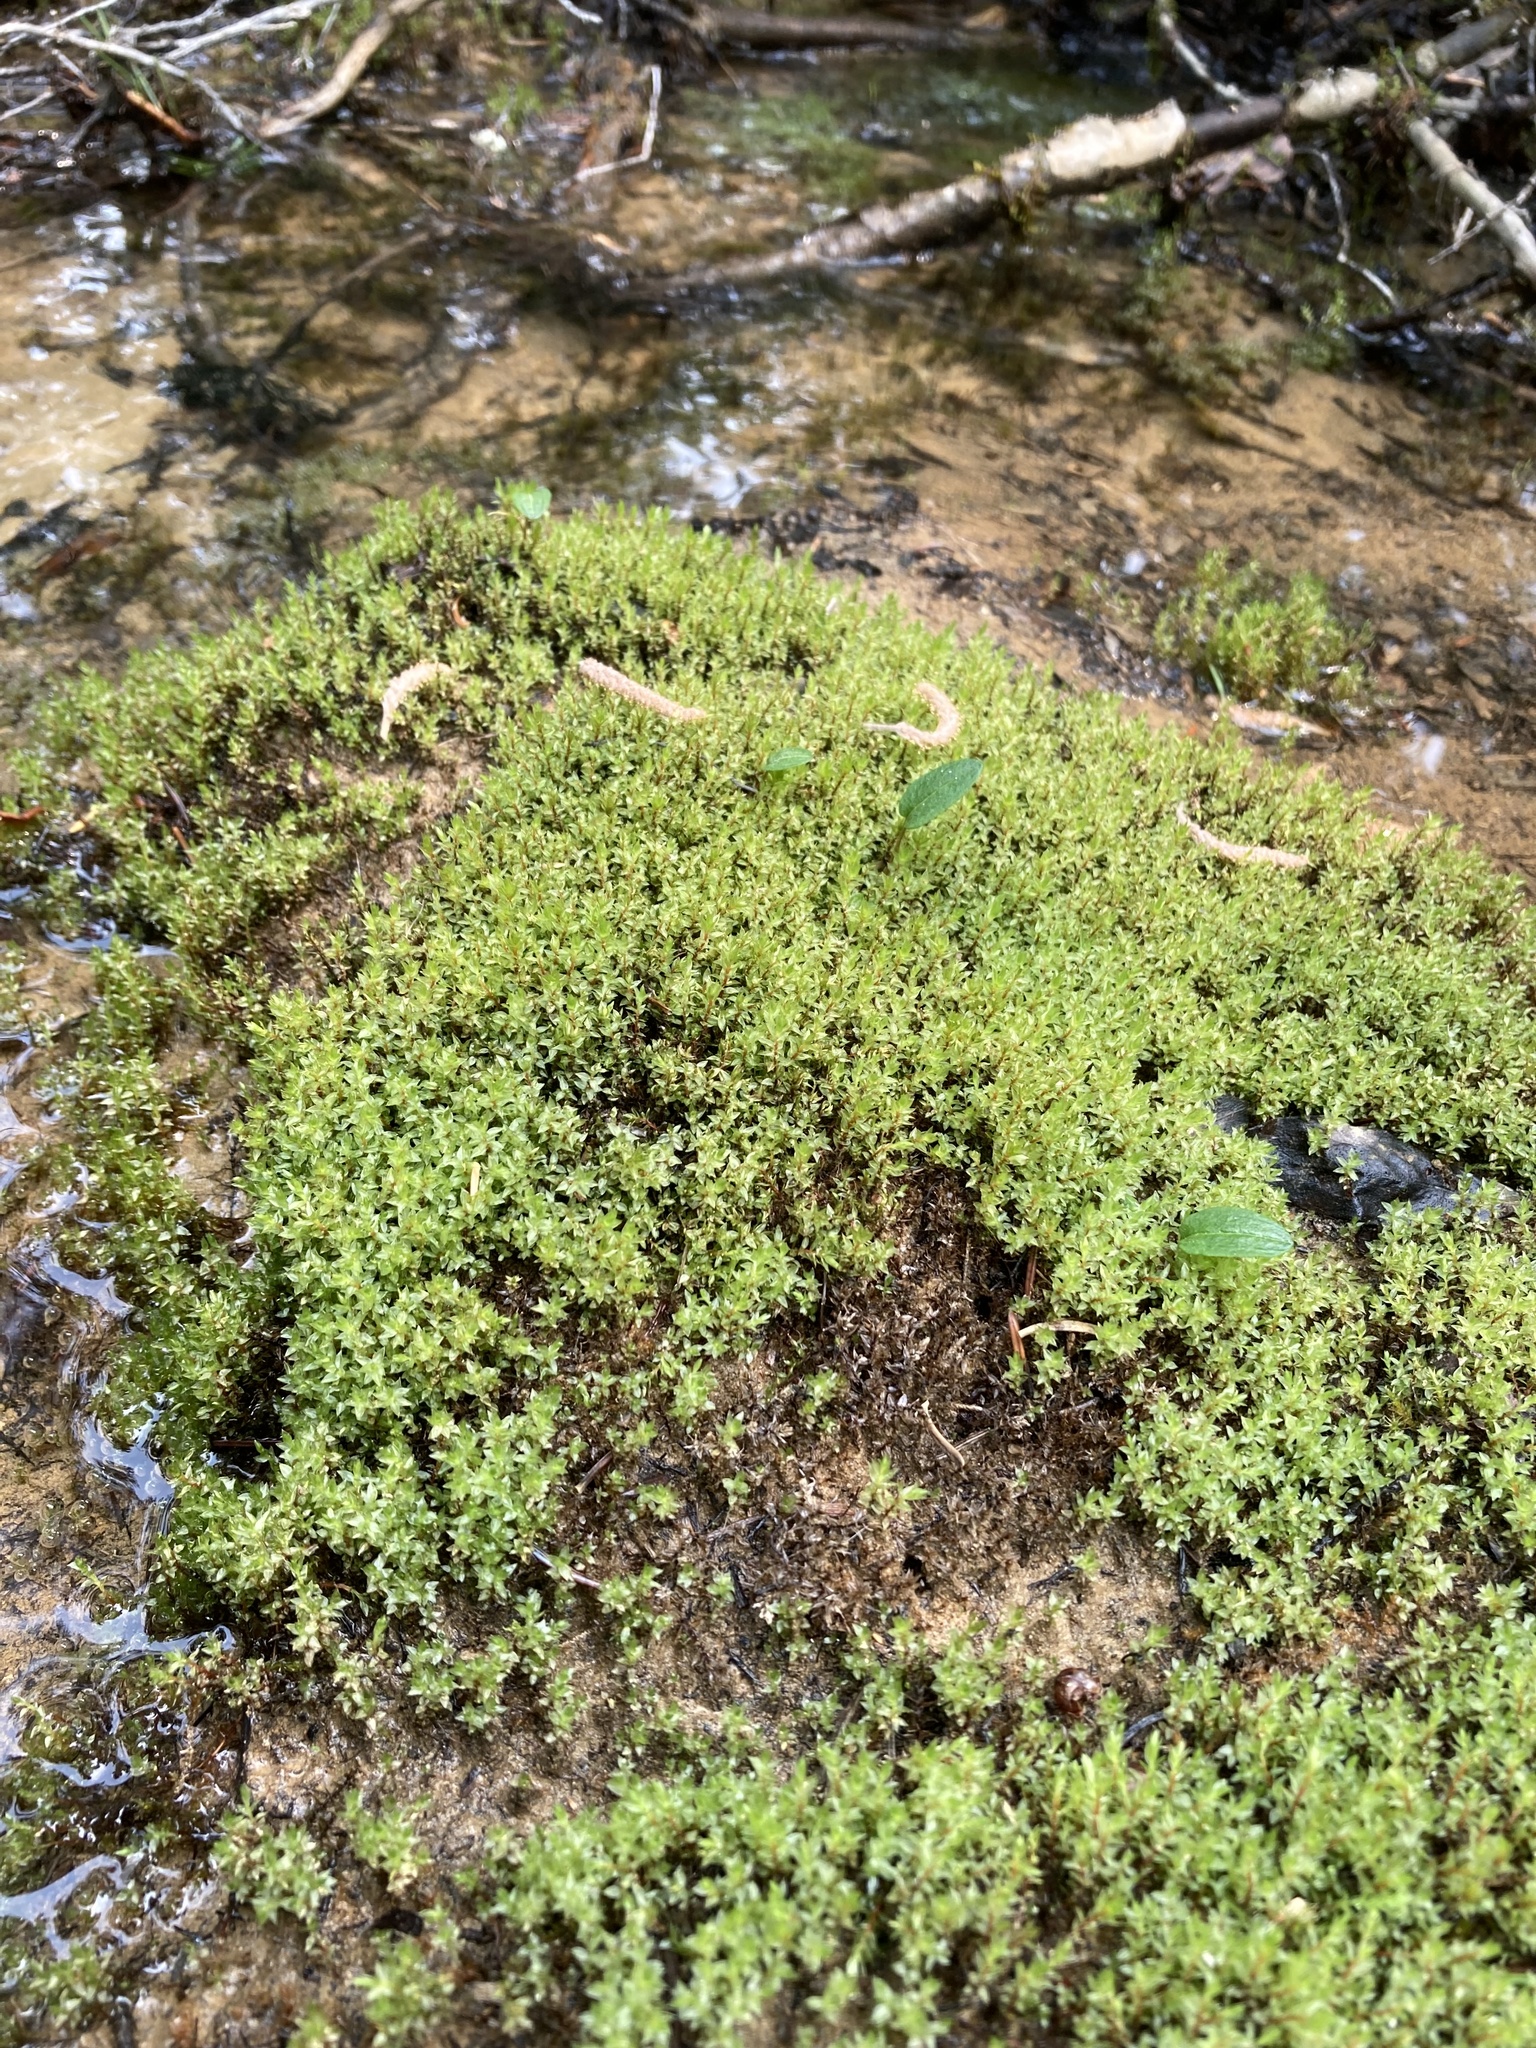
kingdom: Plantae
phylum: Bryophyta
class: Bryopsida
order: Bryales
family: Bryaceae
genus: Ptychostomum
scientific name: Ptychostomum pseudotriquetrum
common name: Long-leaved thread moss
